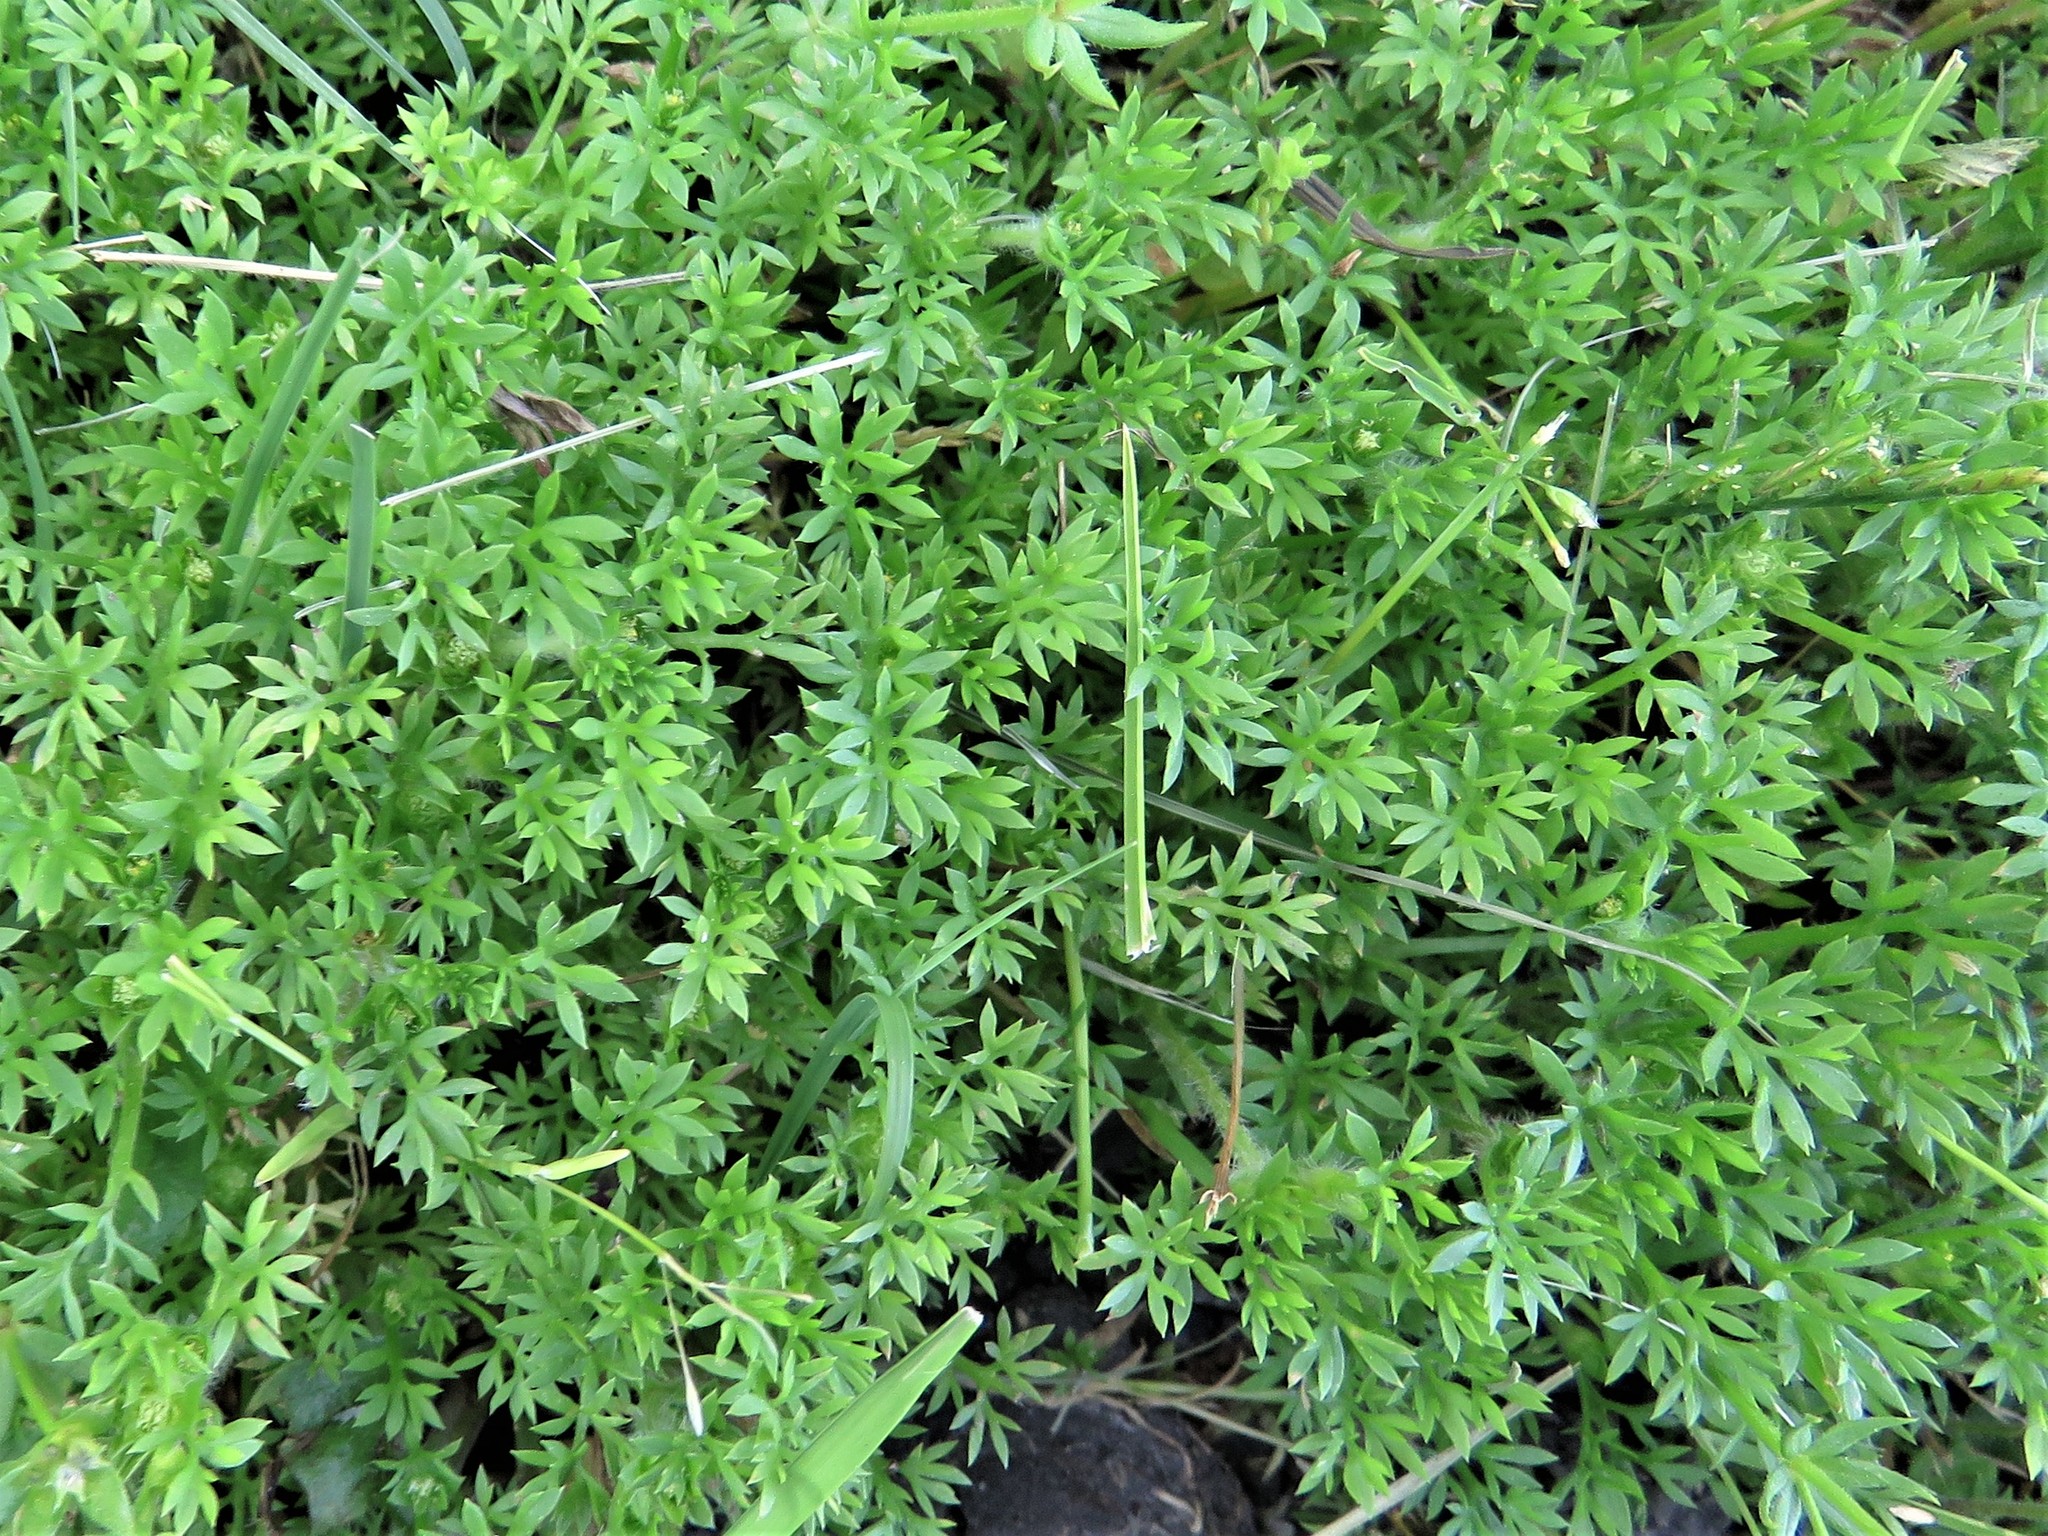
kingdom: Plantae
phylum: Tracheophyta
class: Magnoliopsida
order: Asterales
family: Asteraceae
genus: Soliva
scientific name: Soliva sessilis
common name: Field burrweed
